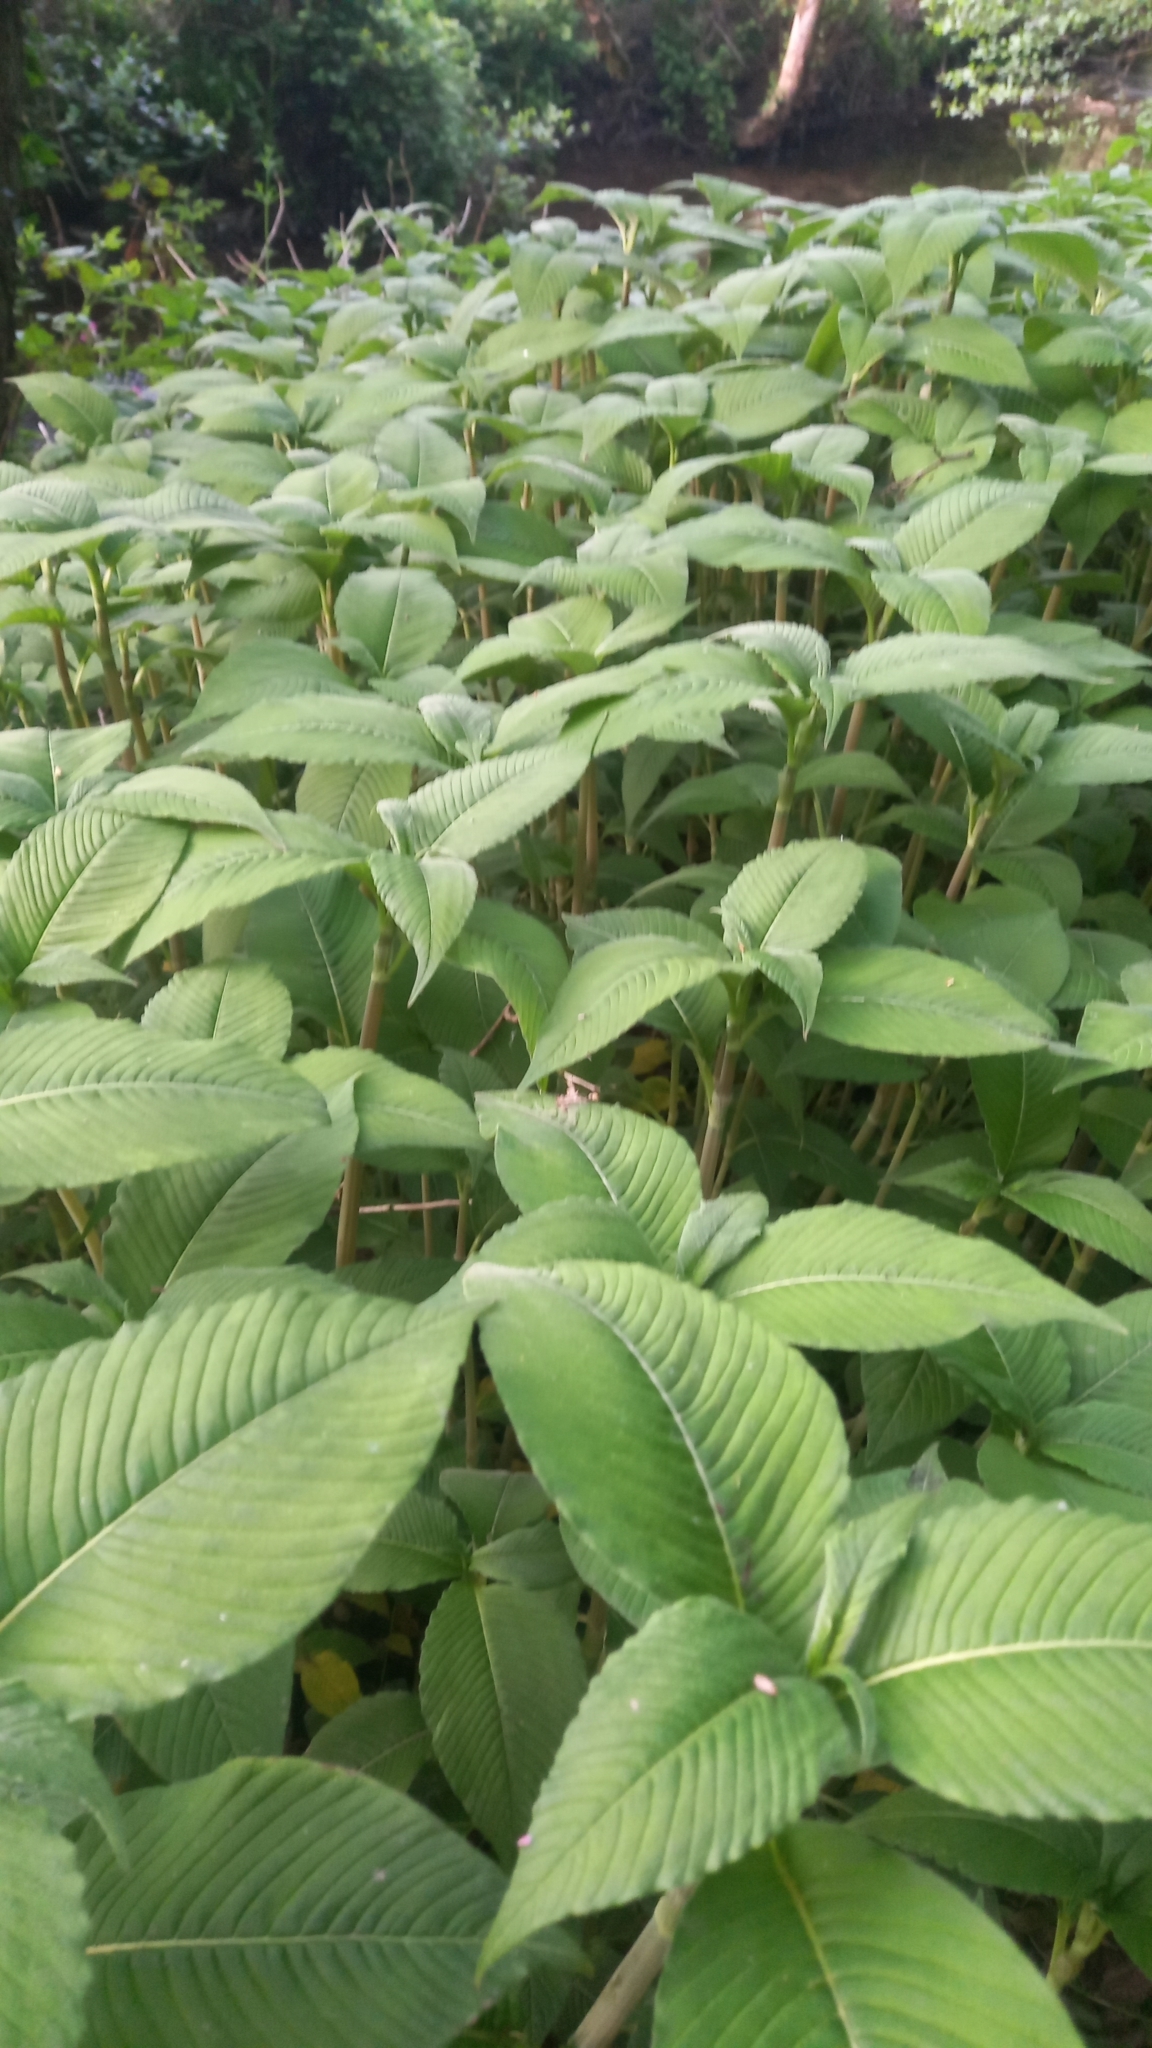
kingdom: Plantae
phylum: Tracheophyta
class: Magnoliopsida
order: Caryophyllales
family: Polygonaceae
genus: Koenigia
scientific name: Koenigia campanulata
